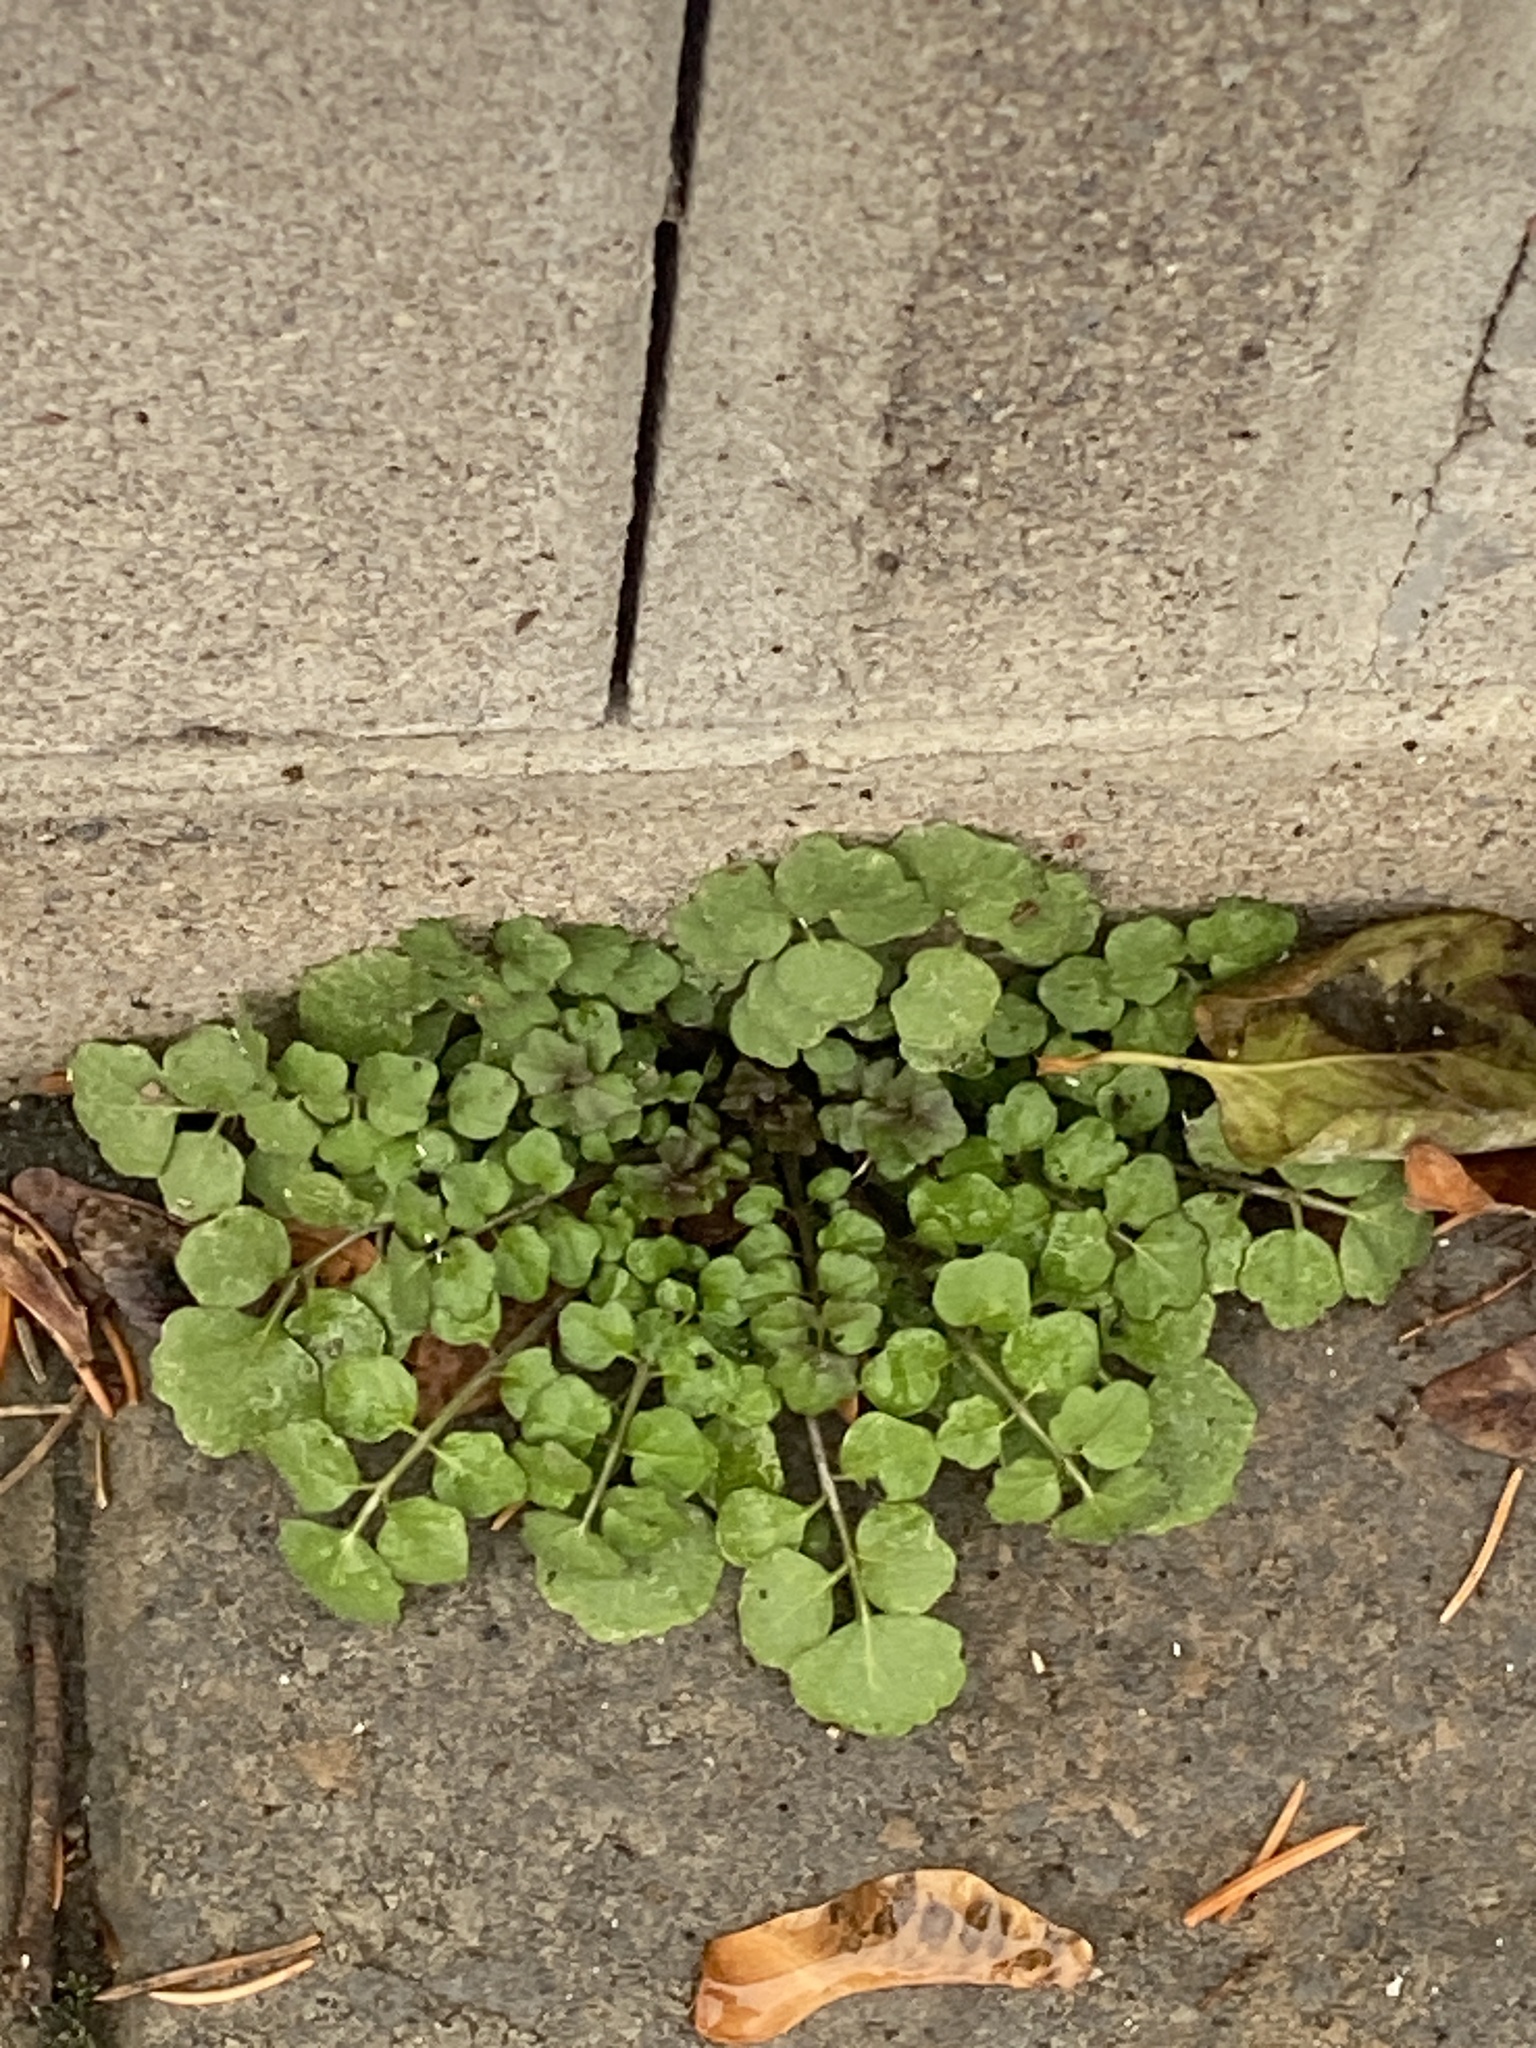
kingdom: Plantae
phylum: Tracheophyta
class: Magnoliopsida
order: Brassicales
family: Brassicaceae
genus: Cardamine
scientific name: Cardamine hirsuta
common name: Hairy bittercress
